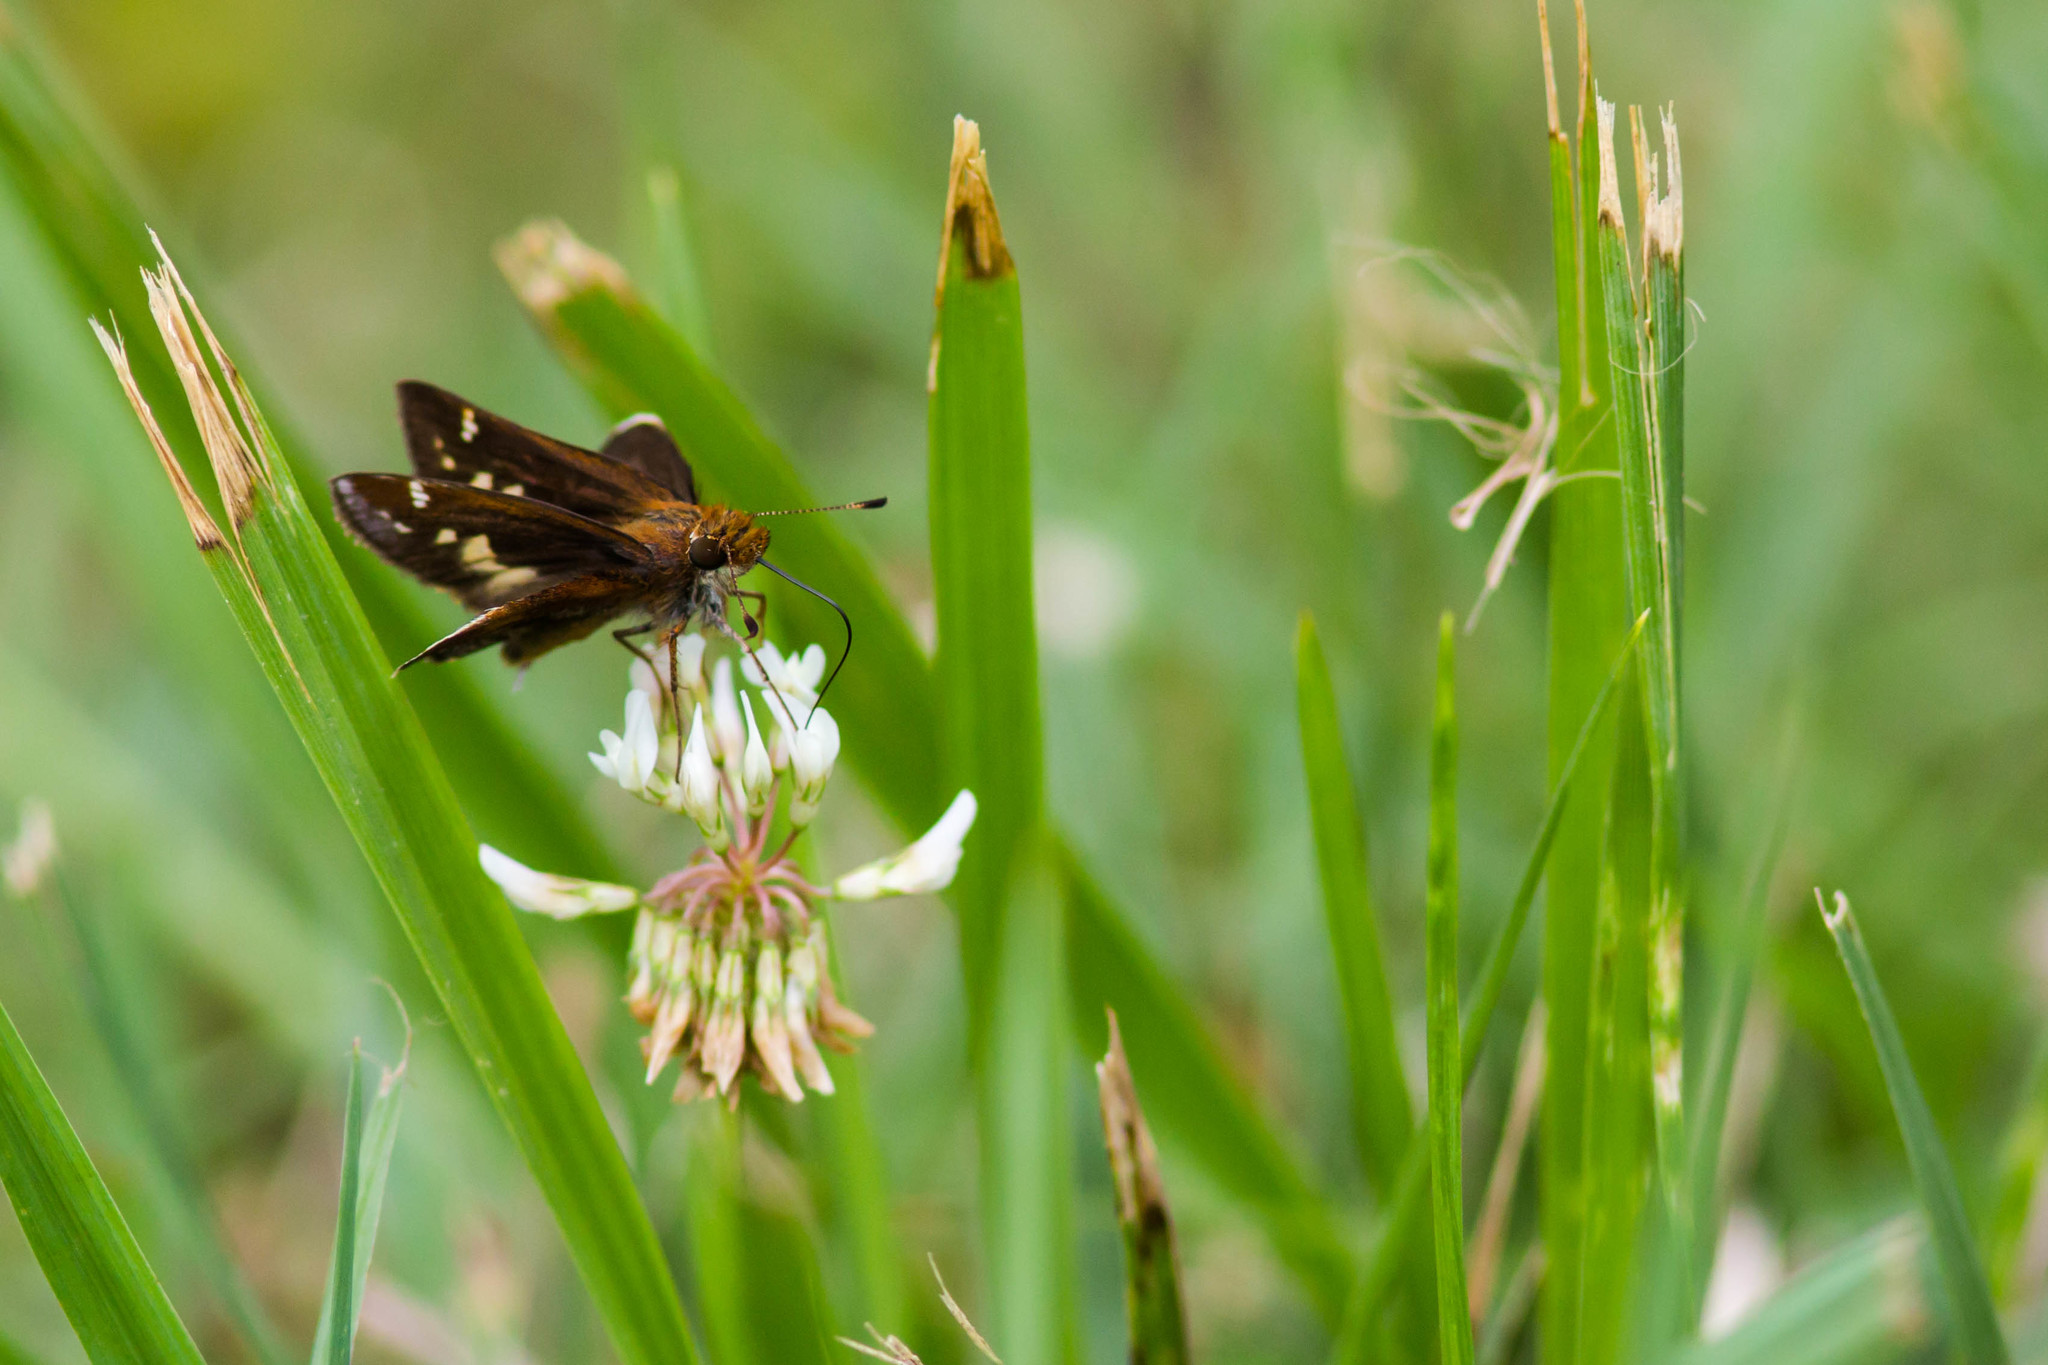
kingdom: Animalia
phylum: Arthropoda
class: Insecta
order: Lepidoptera
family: Hesperiidae
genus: Lon
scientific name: Lon zabulon
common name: Zabulon skipper
